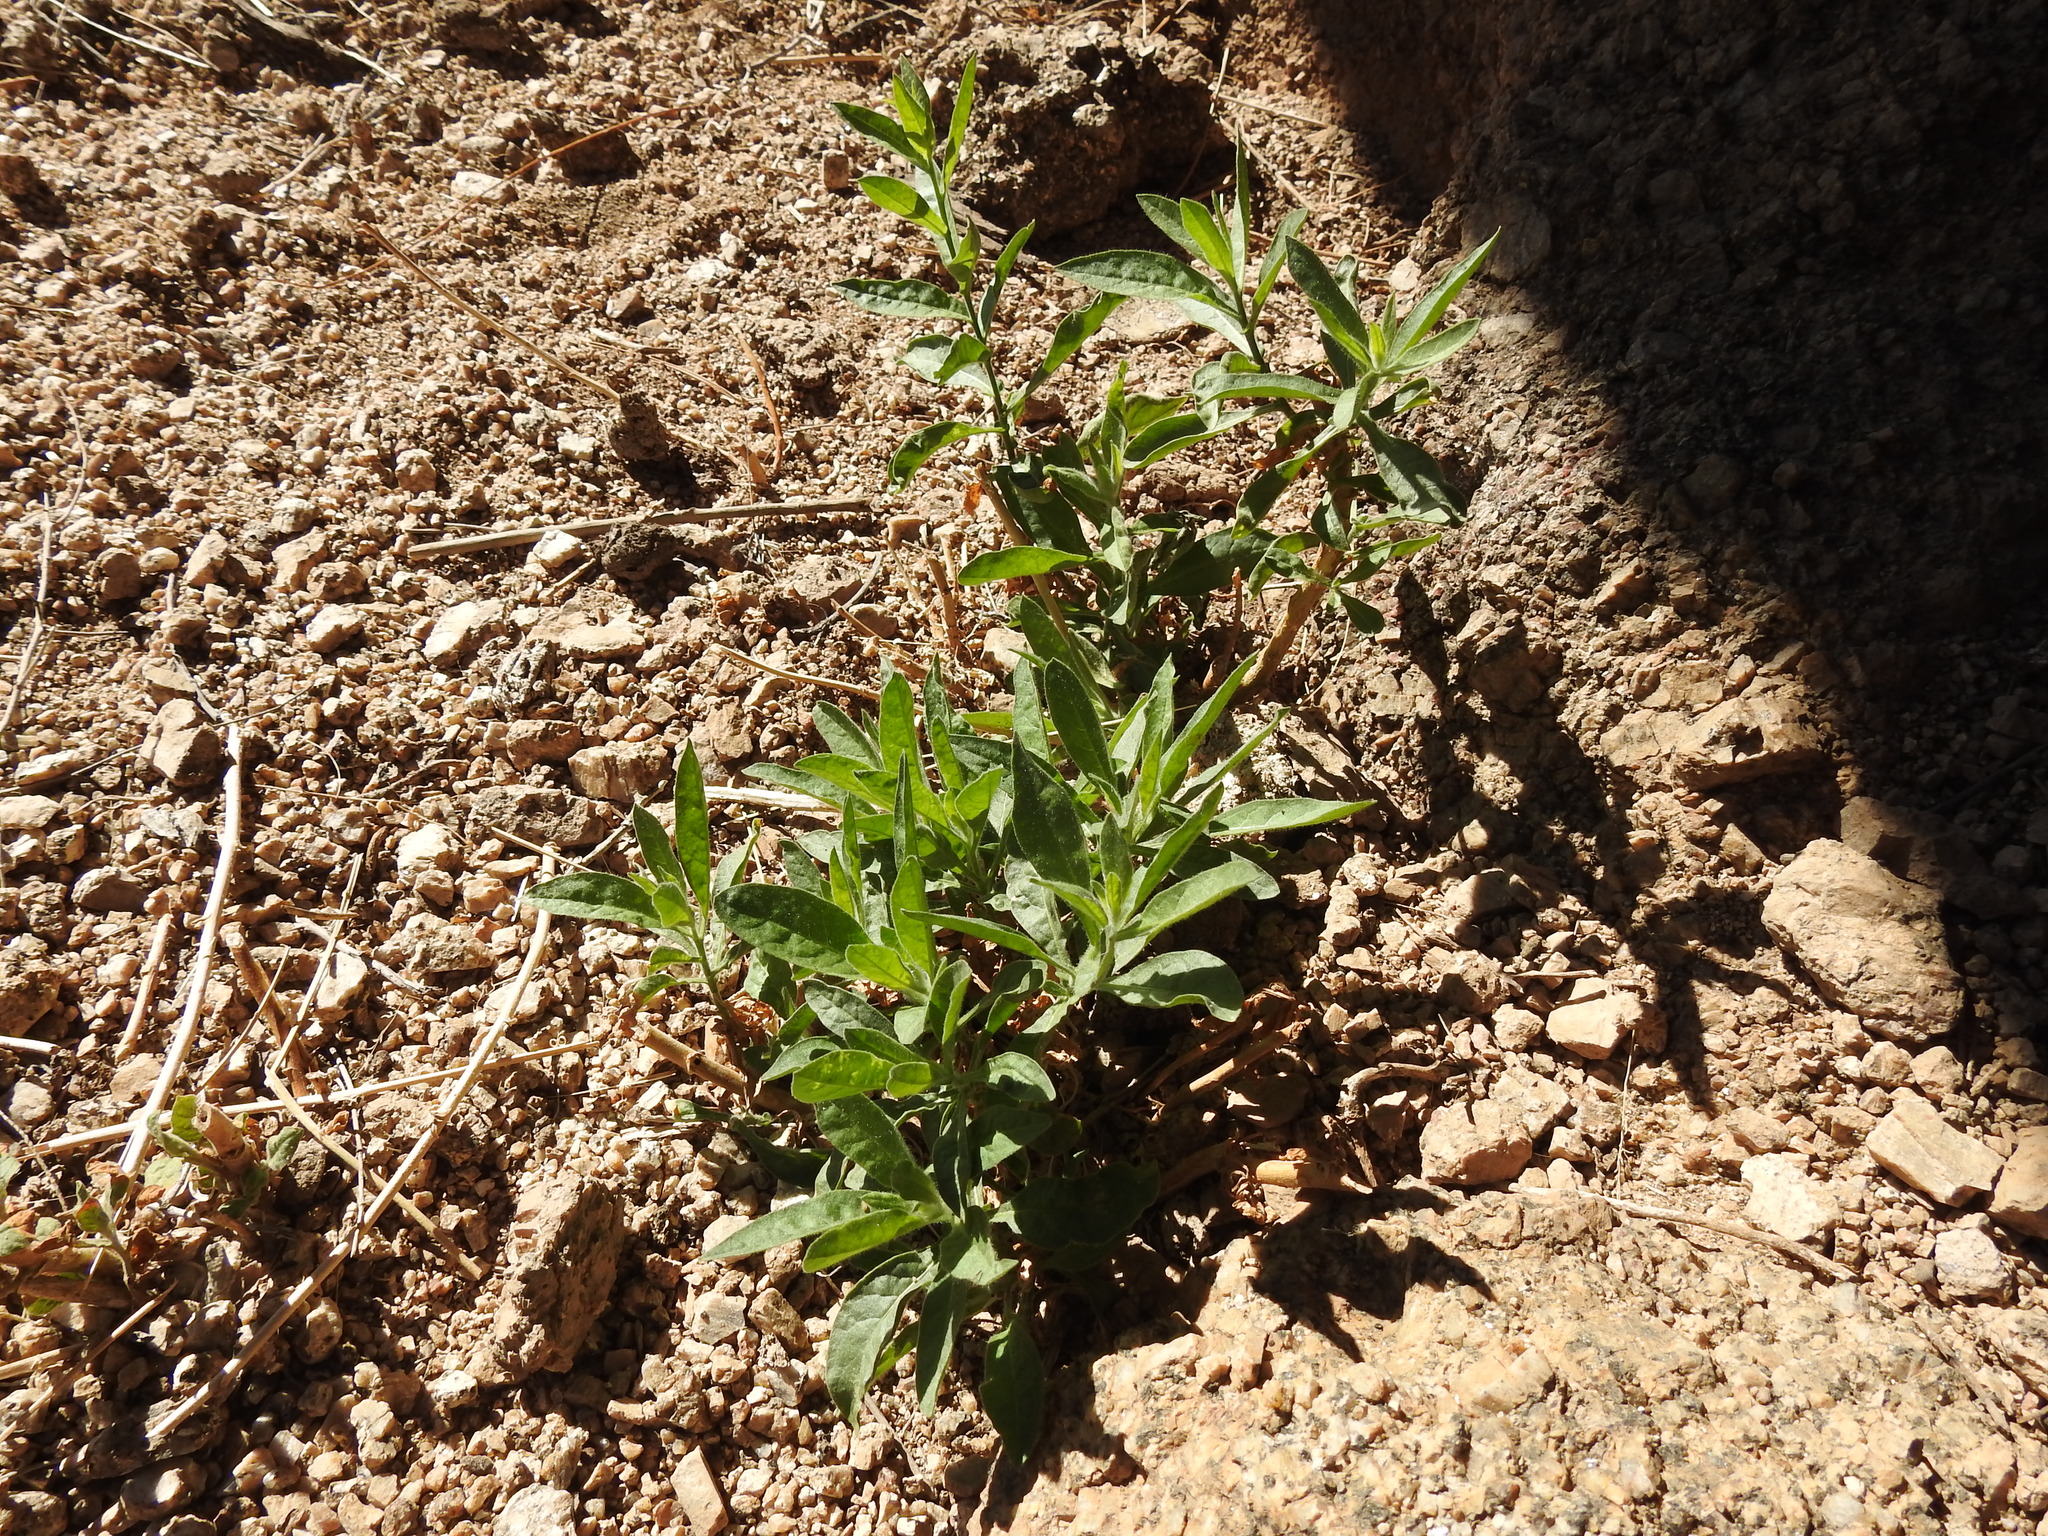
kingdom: Plantae
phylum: Tracheophyta
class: Magnoliopsida
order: Solanales
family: Solanaceae
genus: Nicotiana
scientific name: Nicotiana obtusifolia
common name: Desert tobacco
